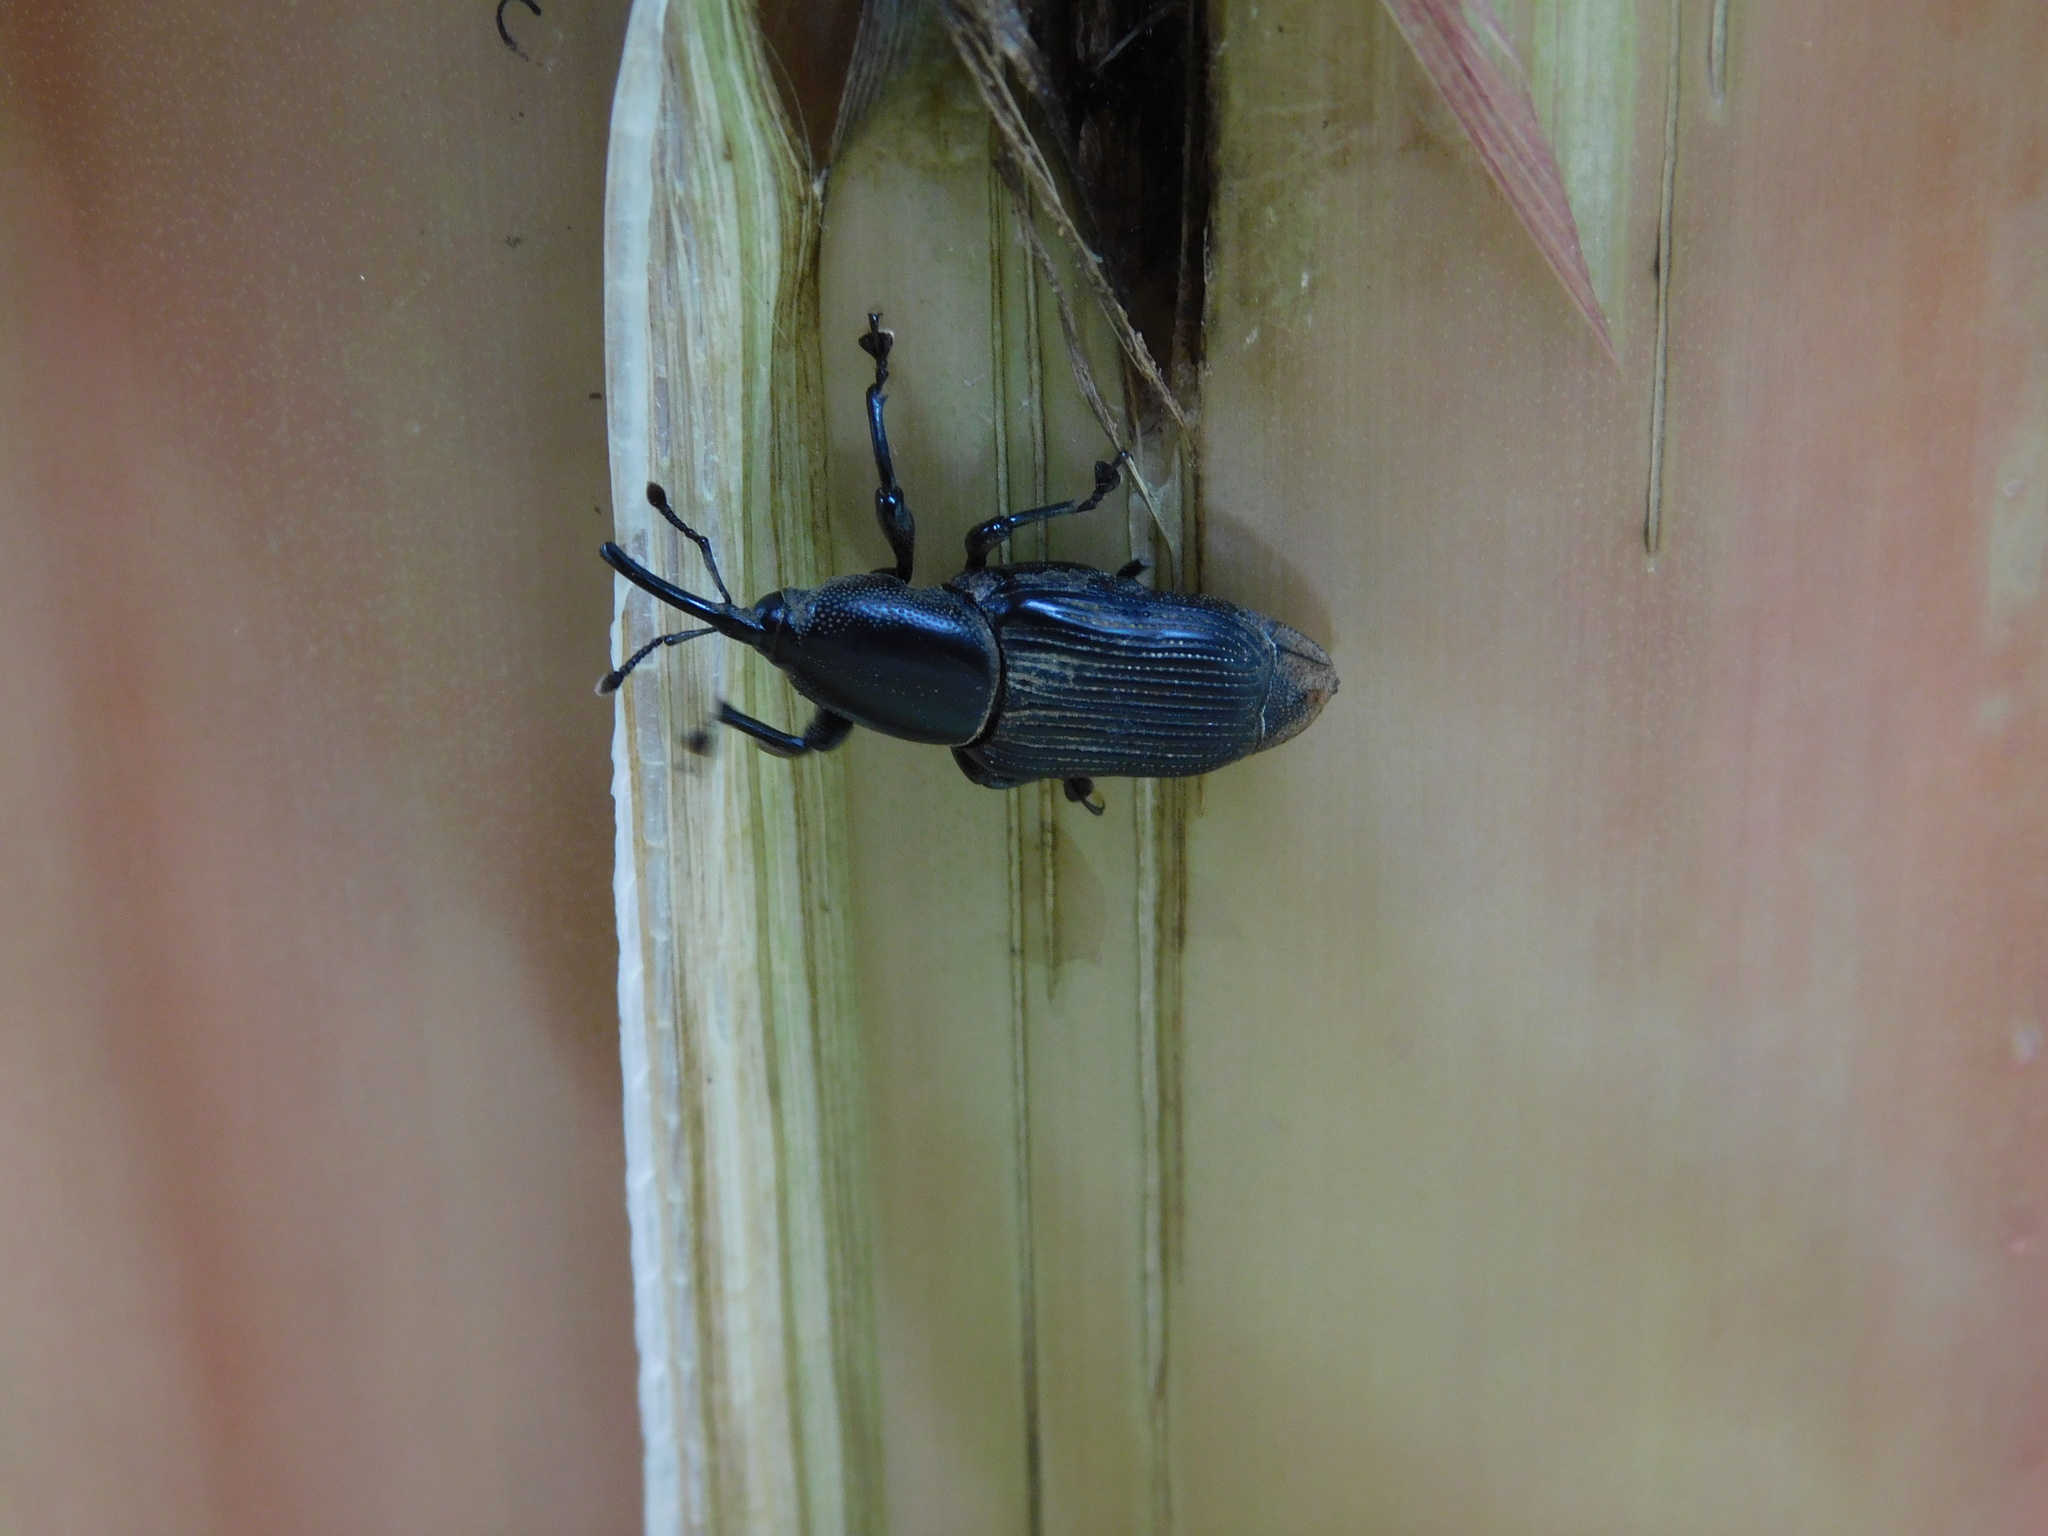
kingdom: Animalia
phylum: Arthropoda
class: Insecta
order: Coleoptera
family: Dryophthoridae
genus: Odoiporus
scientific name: Odoiporus longicollis
